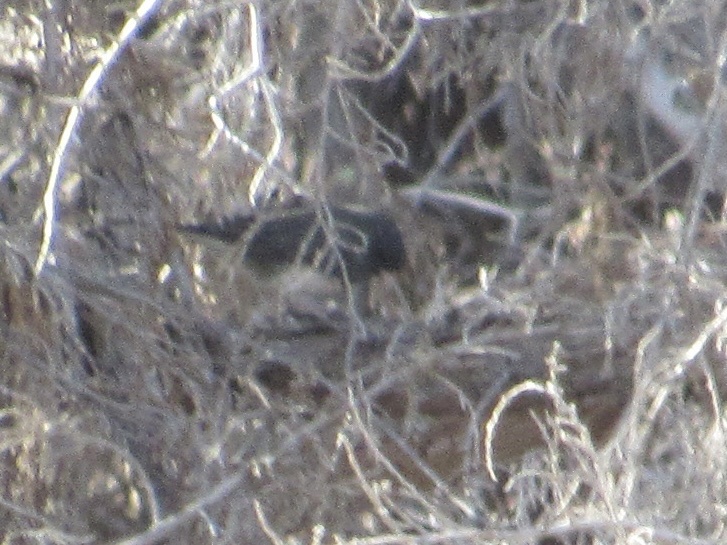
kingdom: Animalia
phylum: Chordata
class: Aves
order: Passeriformes
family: Passerellidae
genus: Junco
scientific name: Junco hyemalis
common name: Dark-eyed junco
